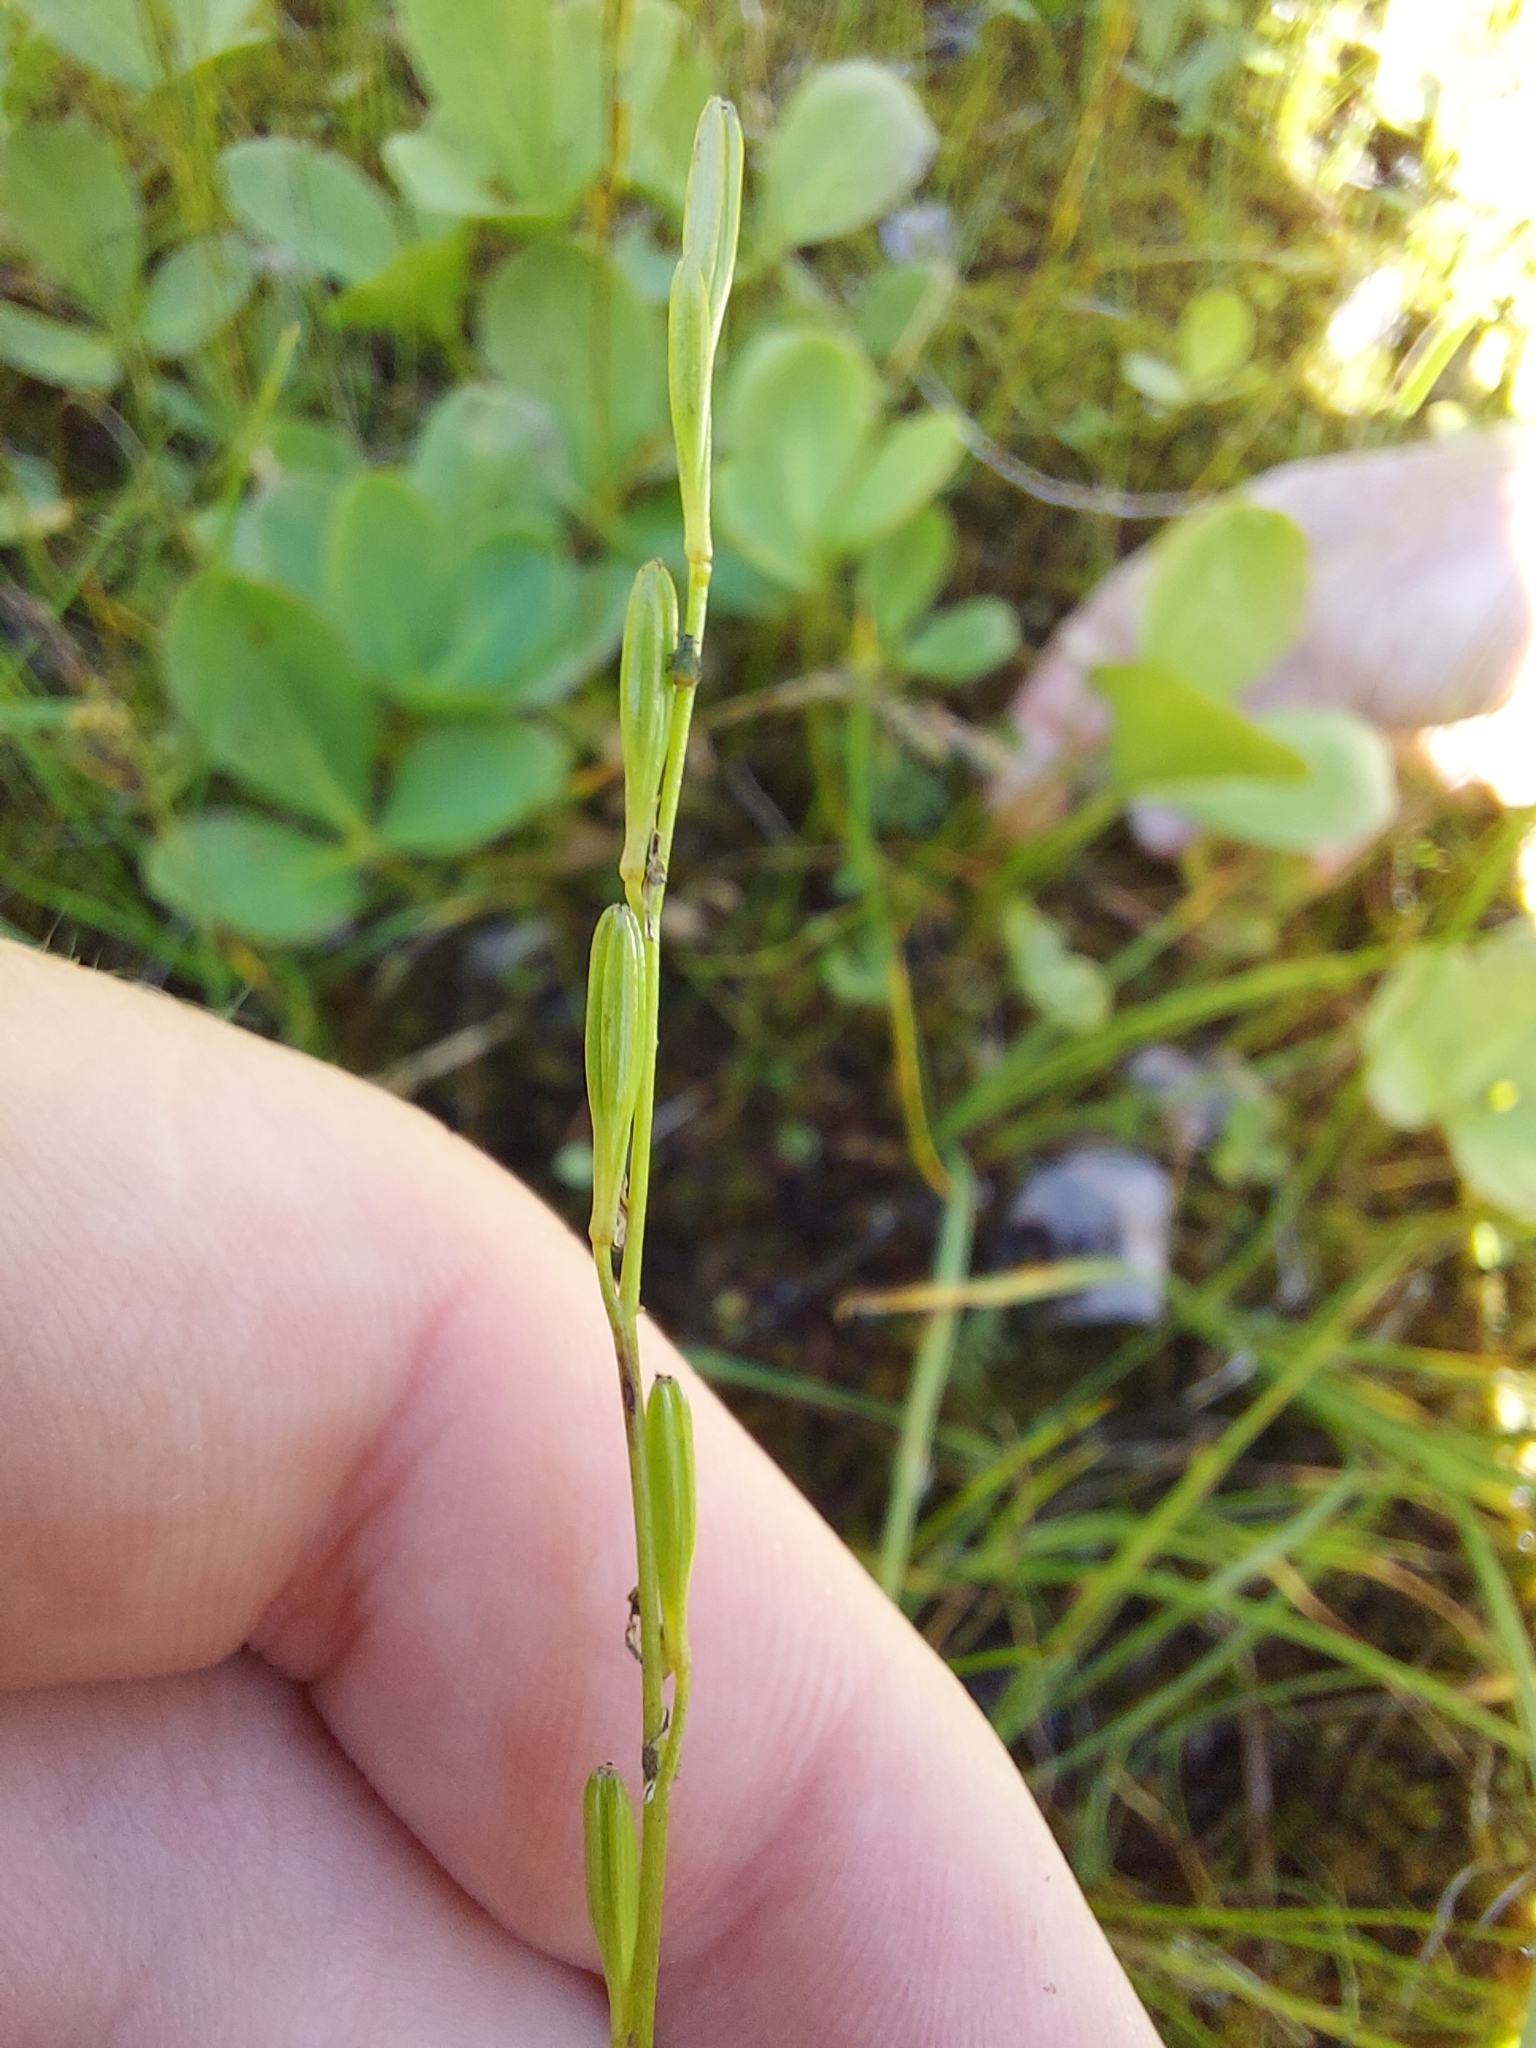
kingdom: Plantae
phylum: Tracheophyta
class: Liliopsida
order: Alismatales
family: Juncaginaceae
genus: Triglochin
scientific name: Triglochin palustris
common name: Marsh arrowgrass
